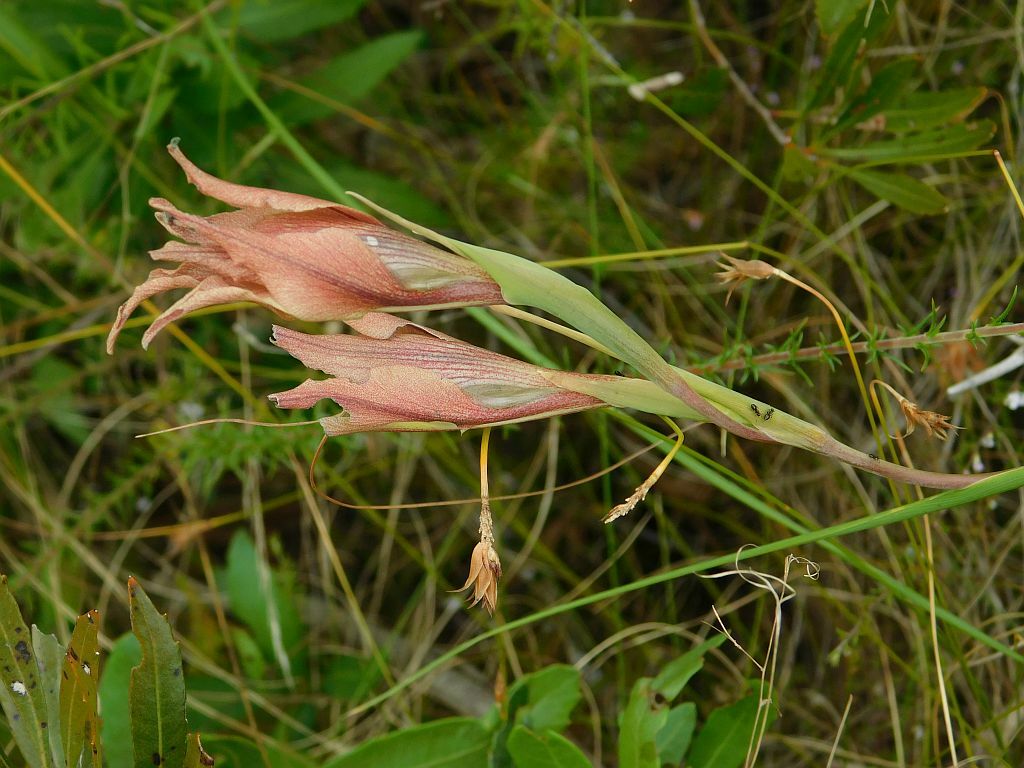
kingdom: Plantae
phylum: Tracheophyta
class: Liliopsida
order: Asparagales
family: Iridaceae
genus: Gladiolus
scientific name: Gladiolus liliaceus
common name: Large brown afrikaner
